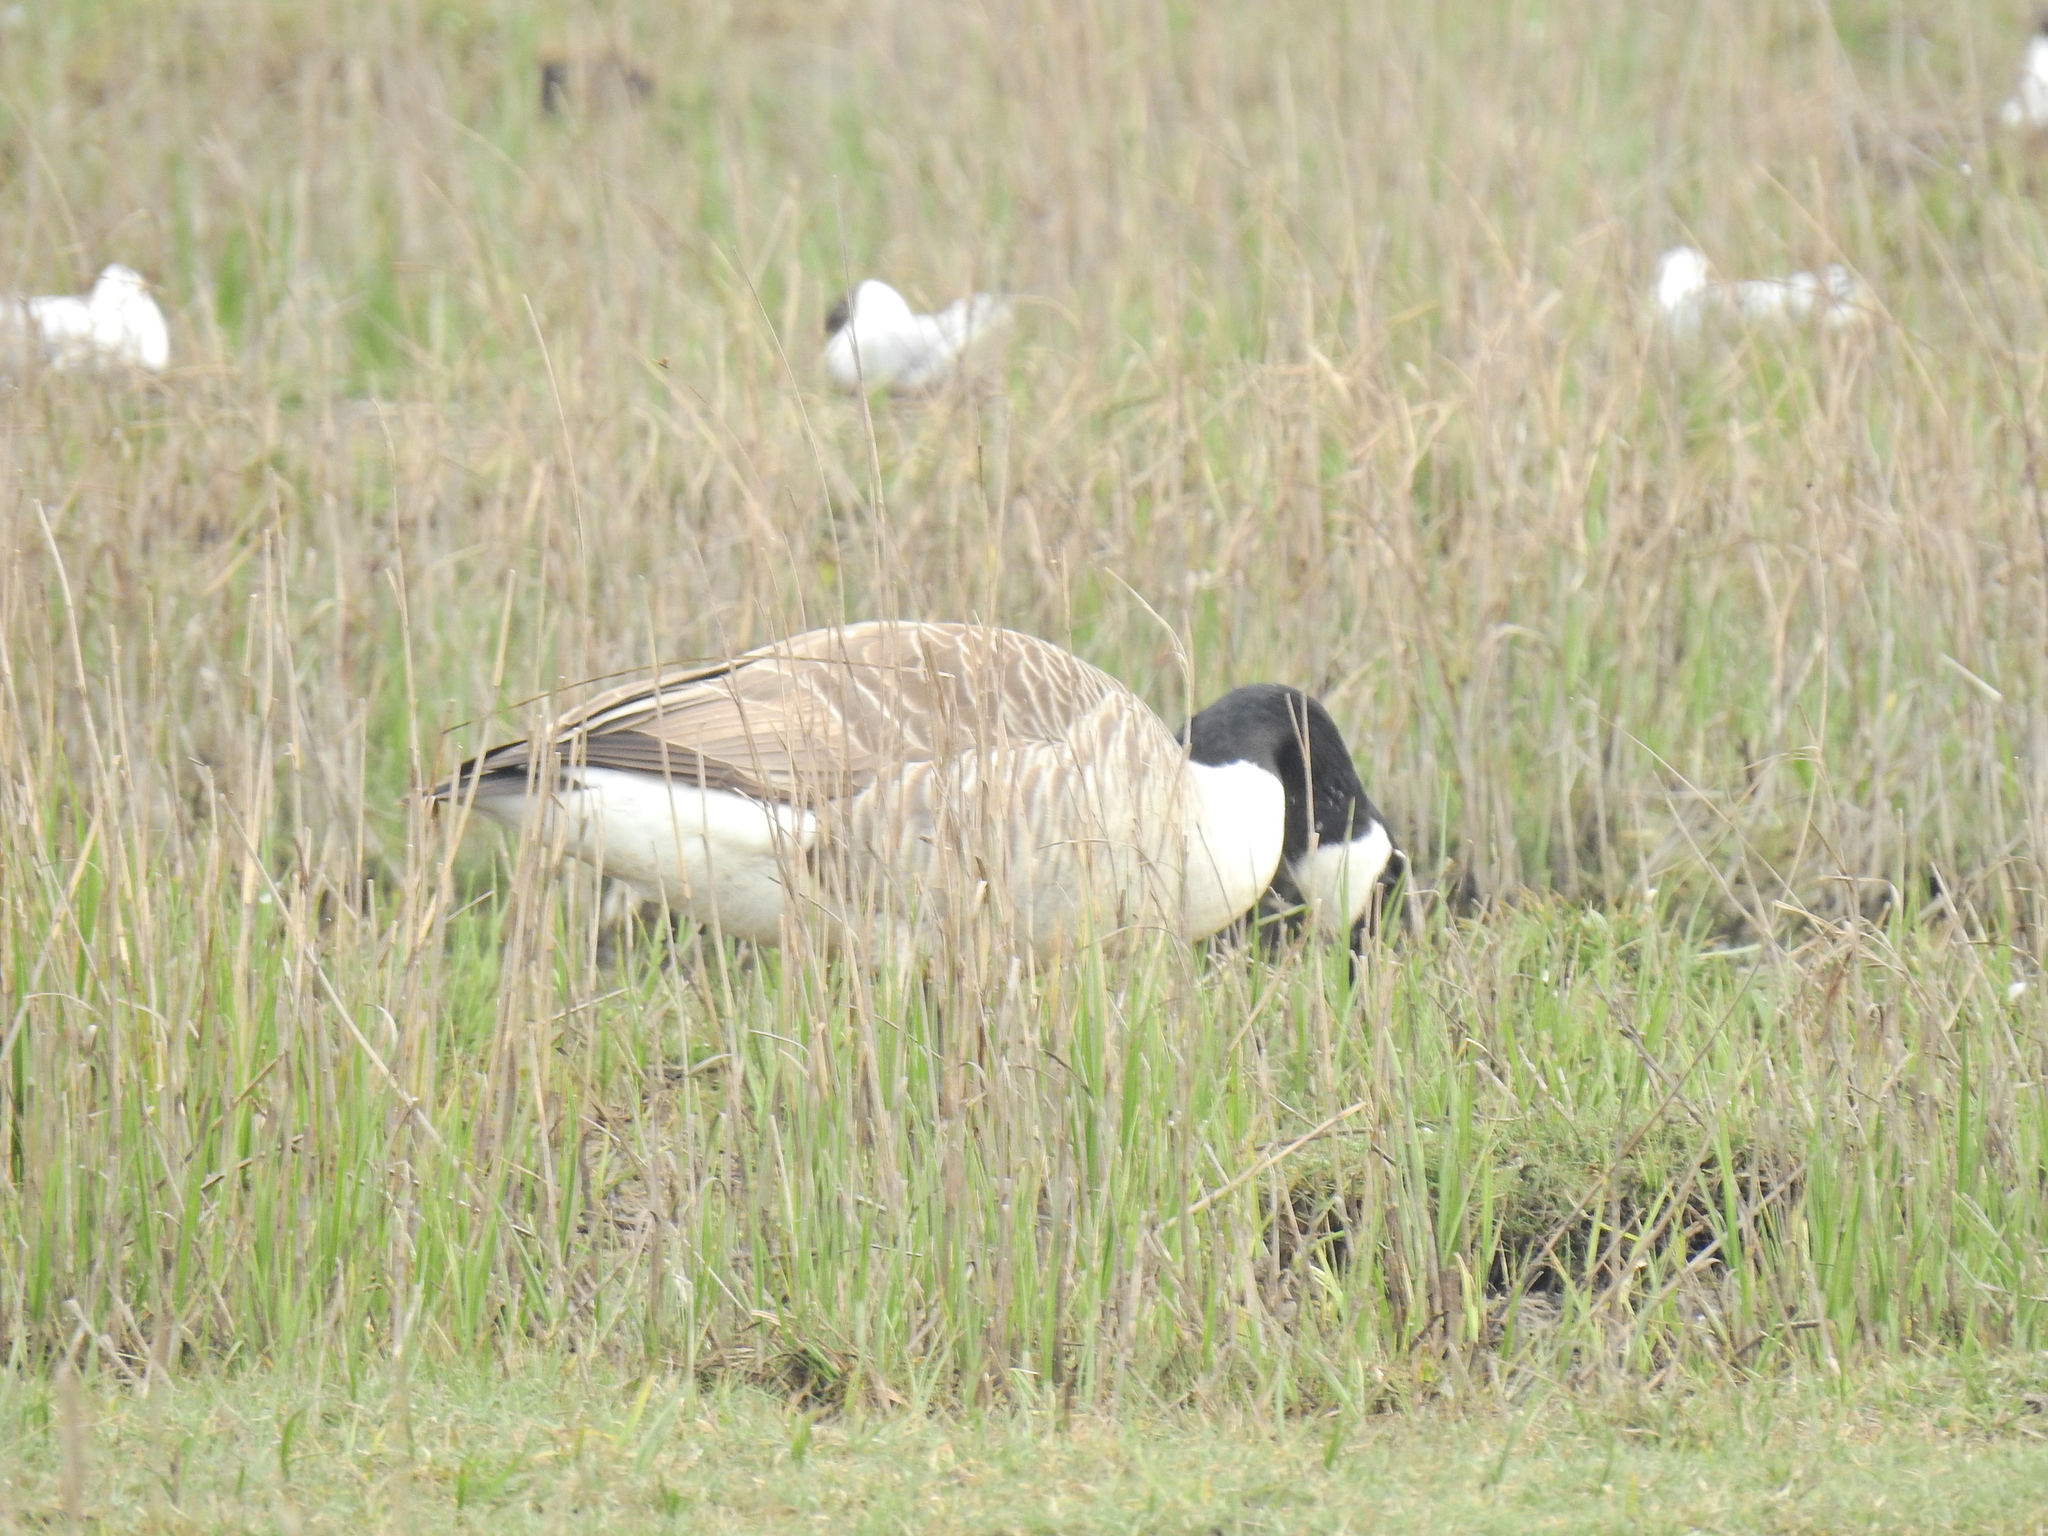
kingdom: Animalia
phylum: Chordata
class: Aves
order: Anseriformes
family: Anatidae
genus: Branta
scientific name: Branta canadensis
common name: Canada goose
